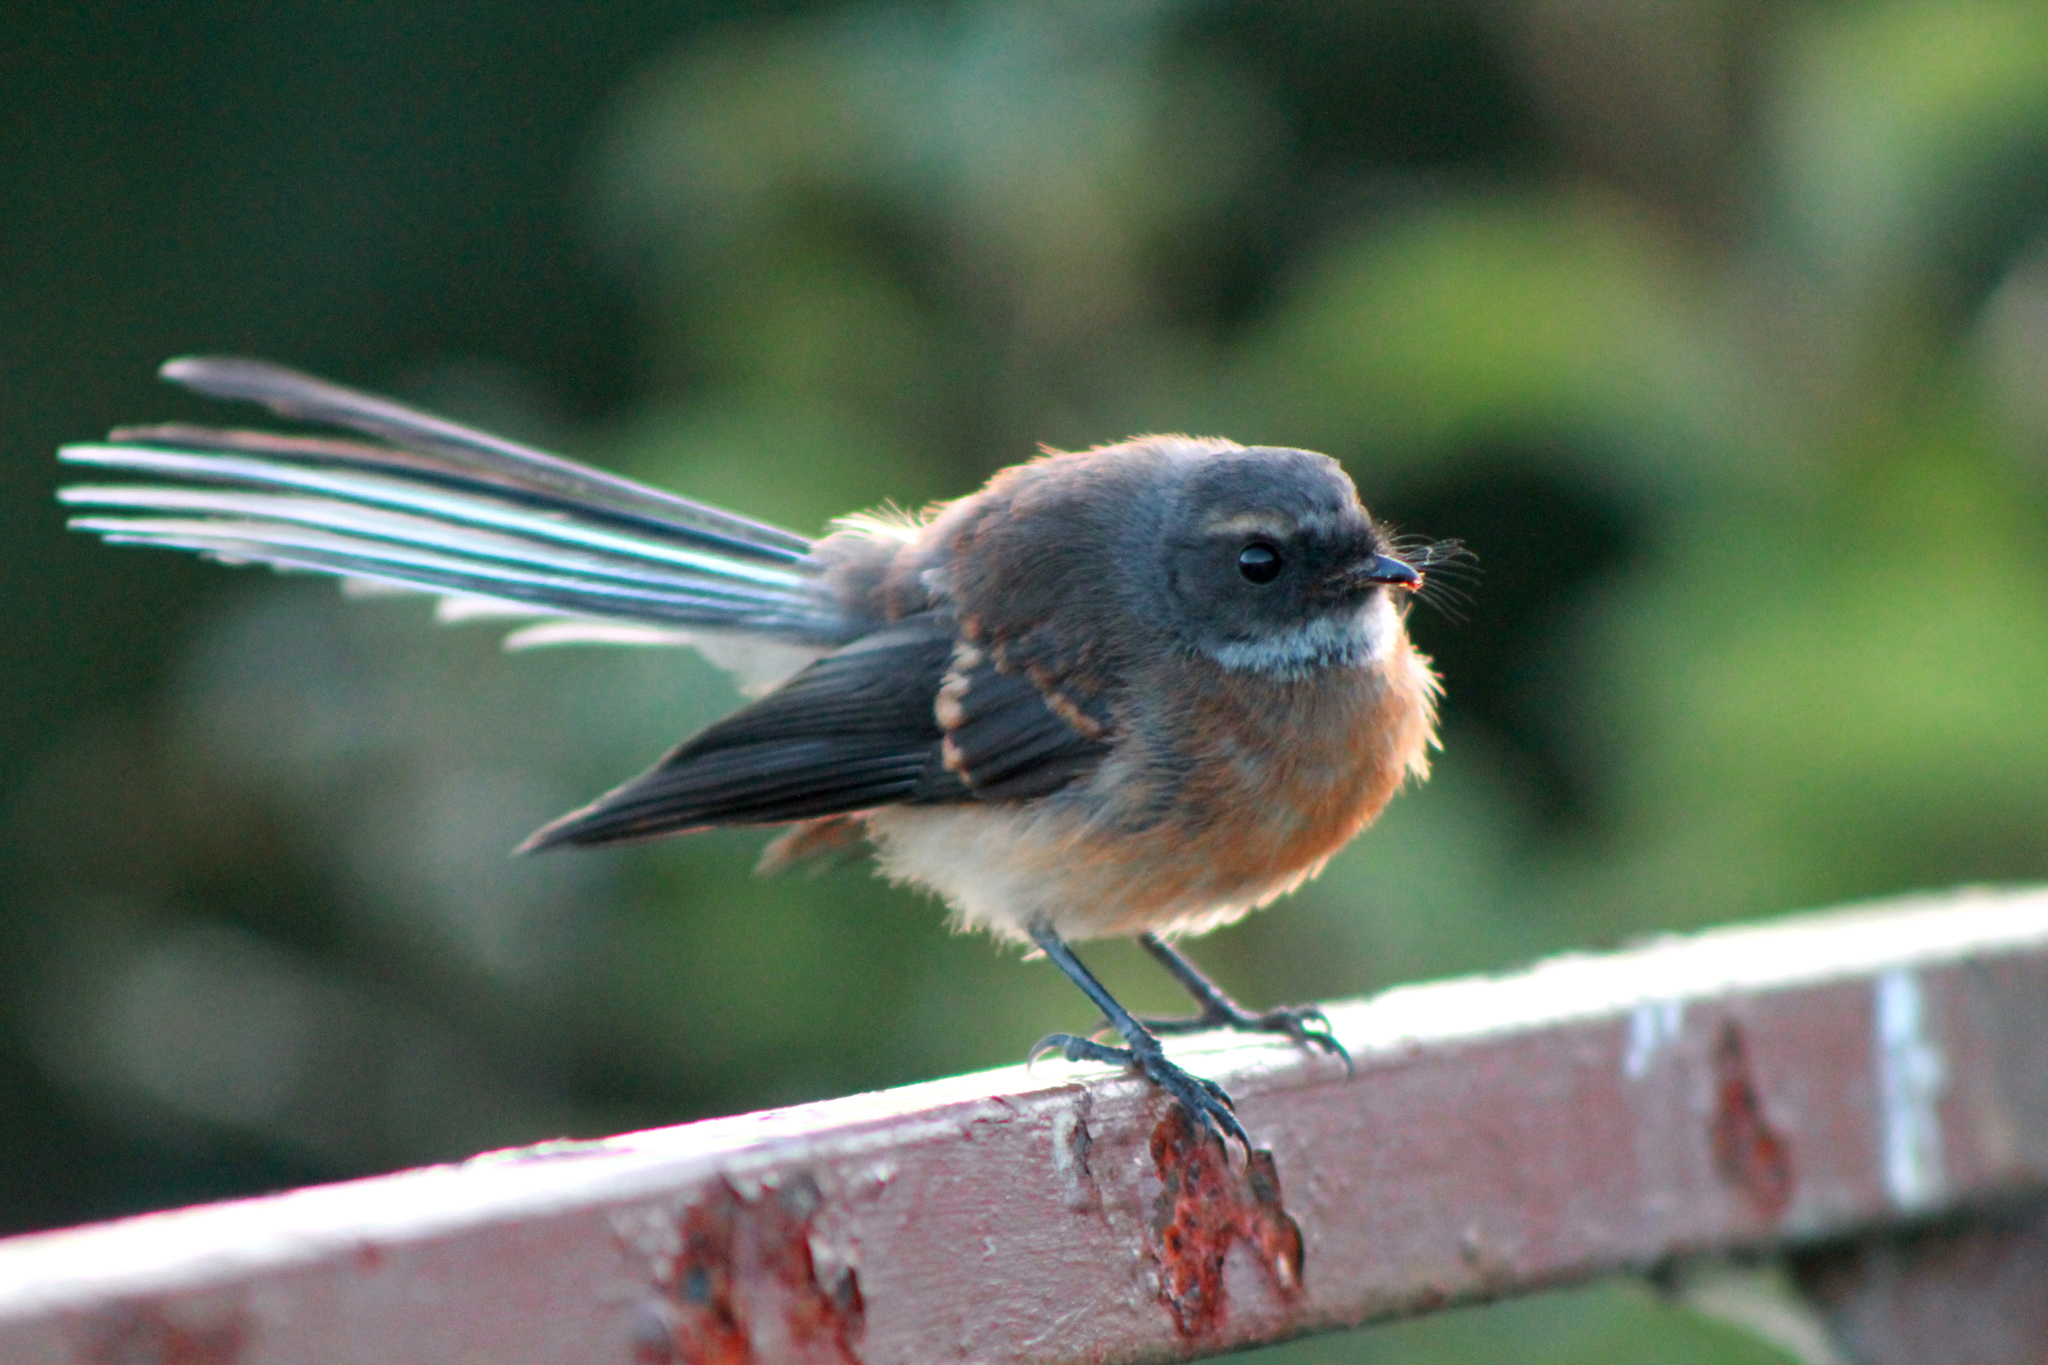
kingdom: Animalia
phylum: Chordata
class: Aves
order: Passeriformes
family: Rhipiduridae
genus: Rhipidura
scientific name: Rhipidura fuliginosa
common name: New zealand fantail
